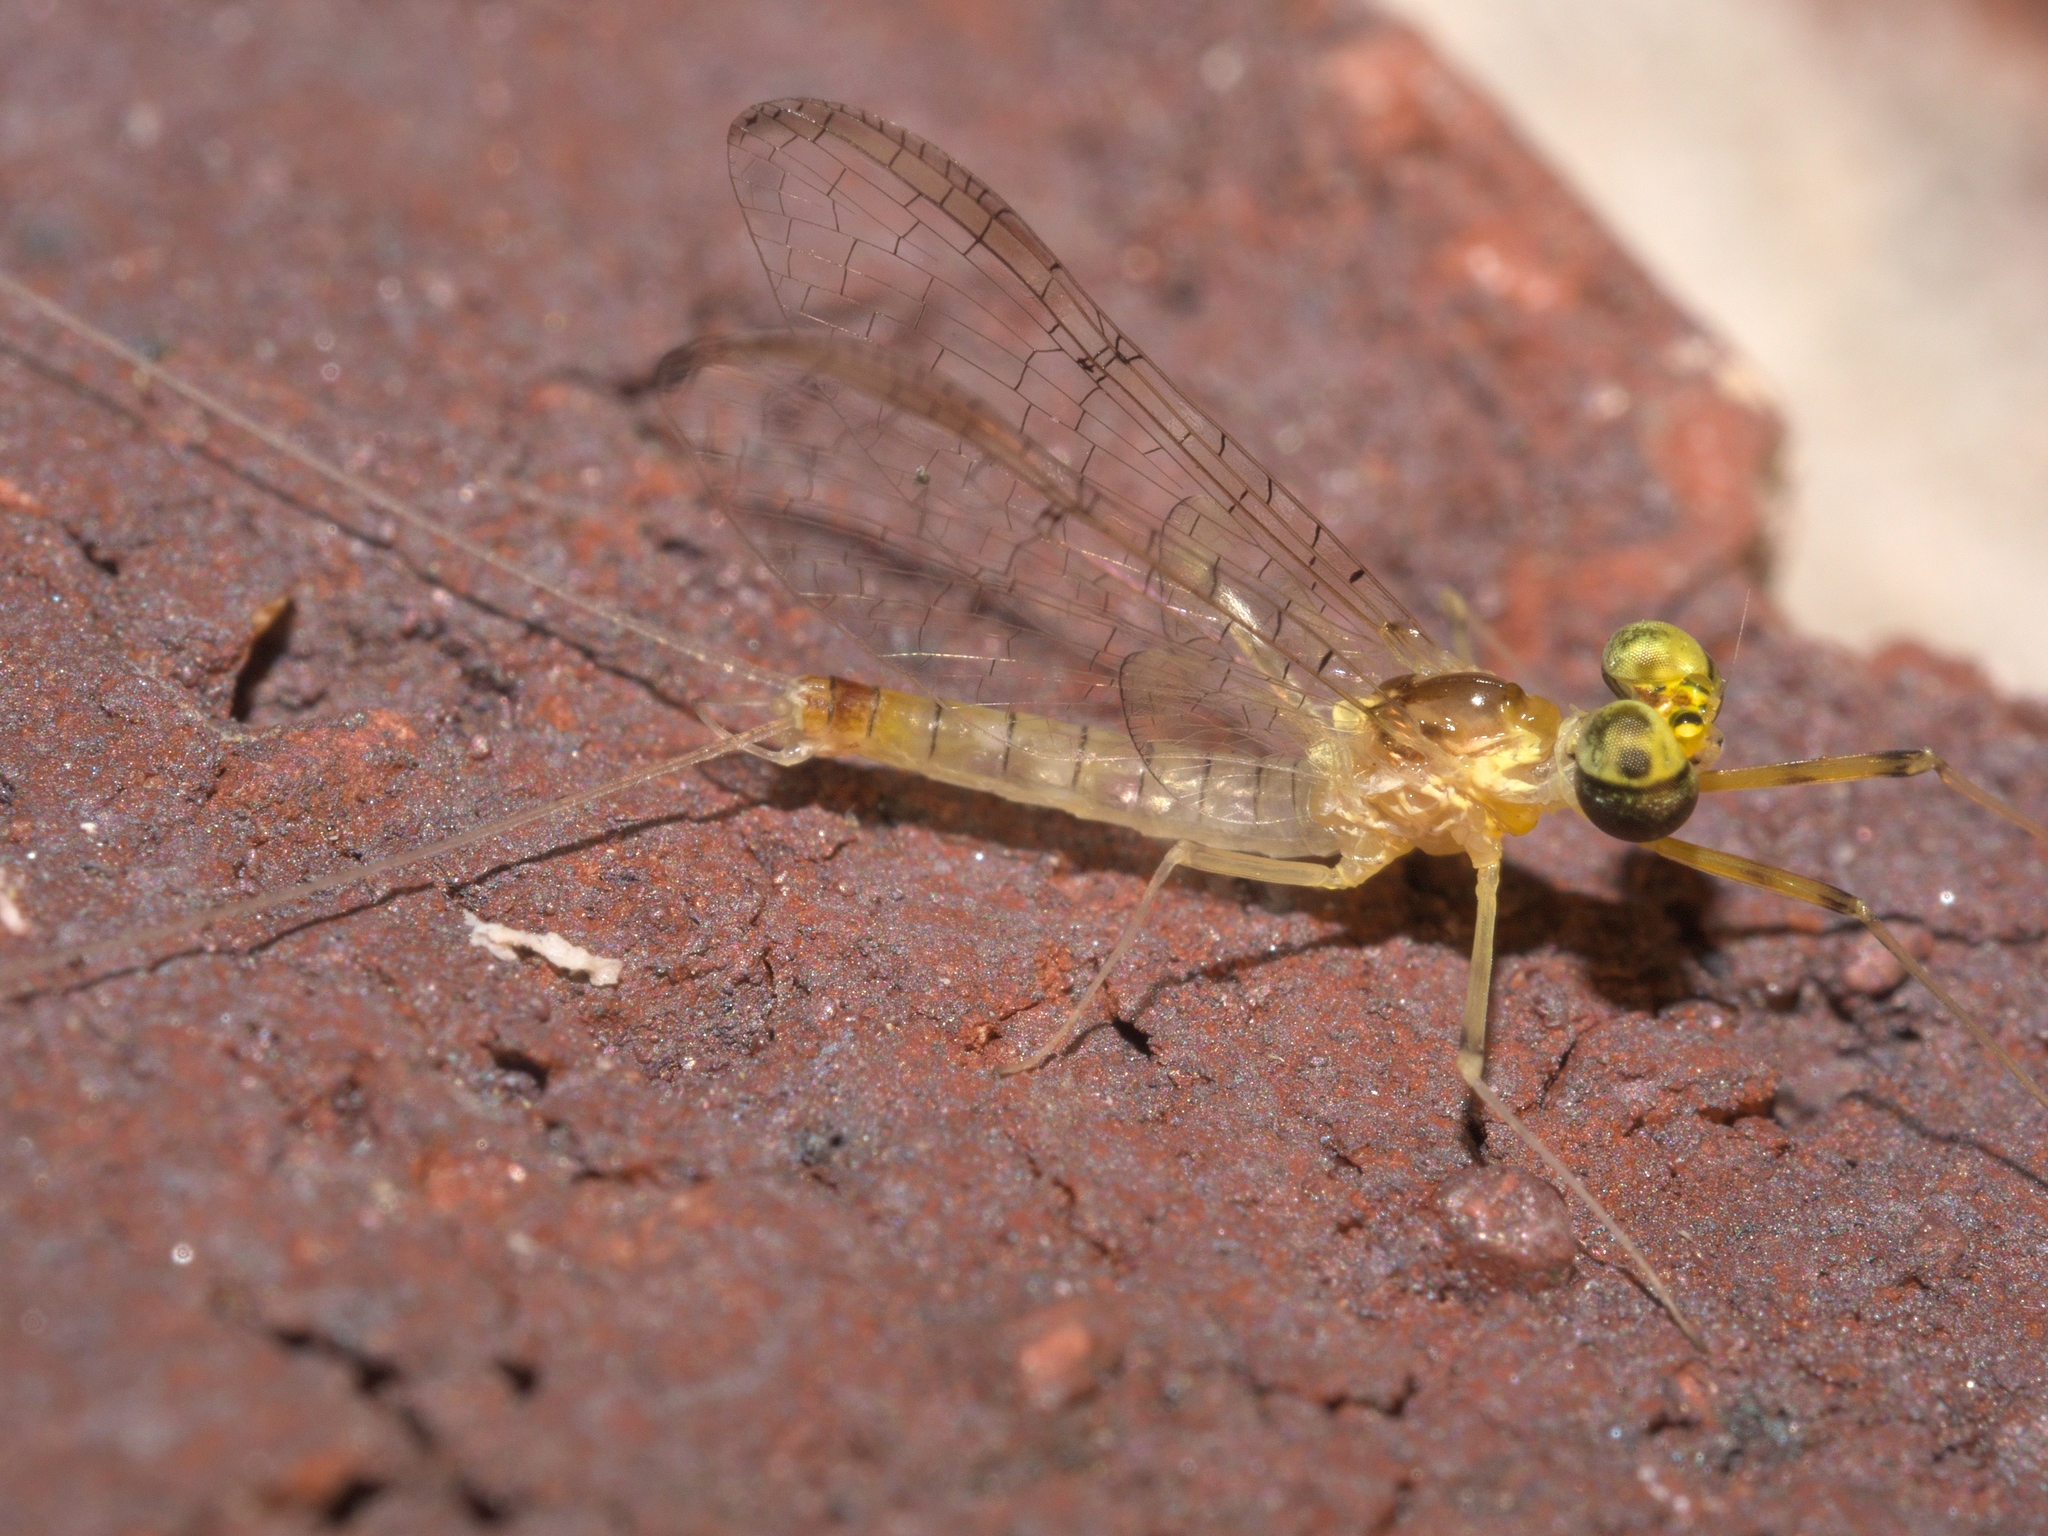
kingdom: Animalia
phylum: Arthropoda
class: Insecta
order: Ephemeroptera
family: Heptageniidae
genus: Stenacron
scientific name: Stenacron interpunctatum
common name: Orange cahill
